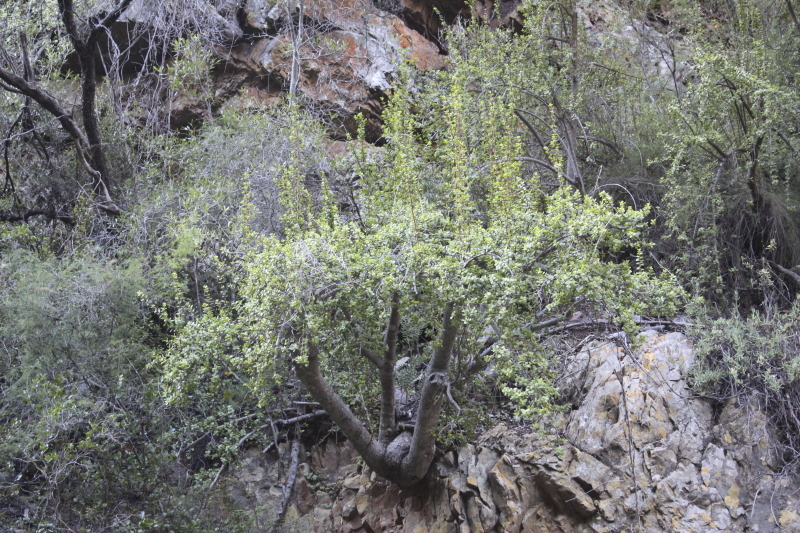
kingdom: Plantae
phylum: Tracheophyta
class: Magnoliopsida
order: Caryophyllales
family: Didiereaceae
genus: Portulacaria
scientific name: Portulacaria afra
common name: Elephant-bush
